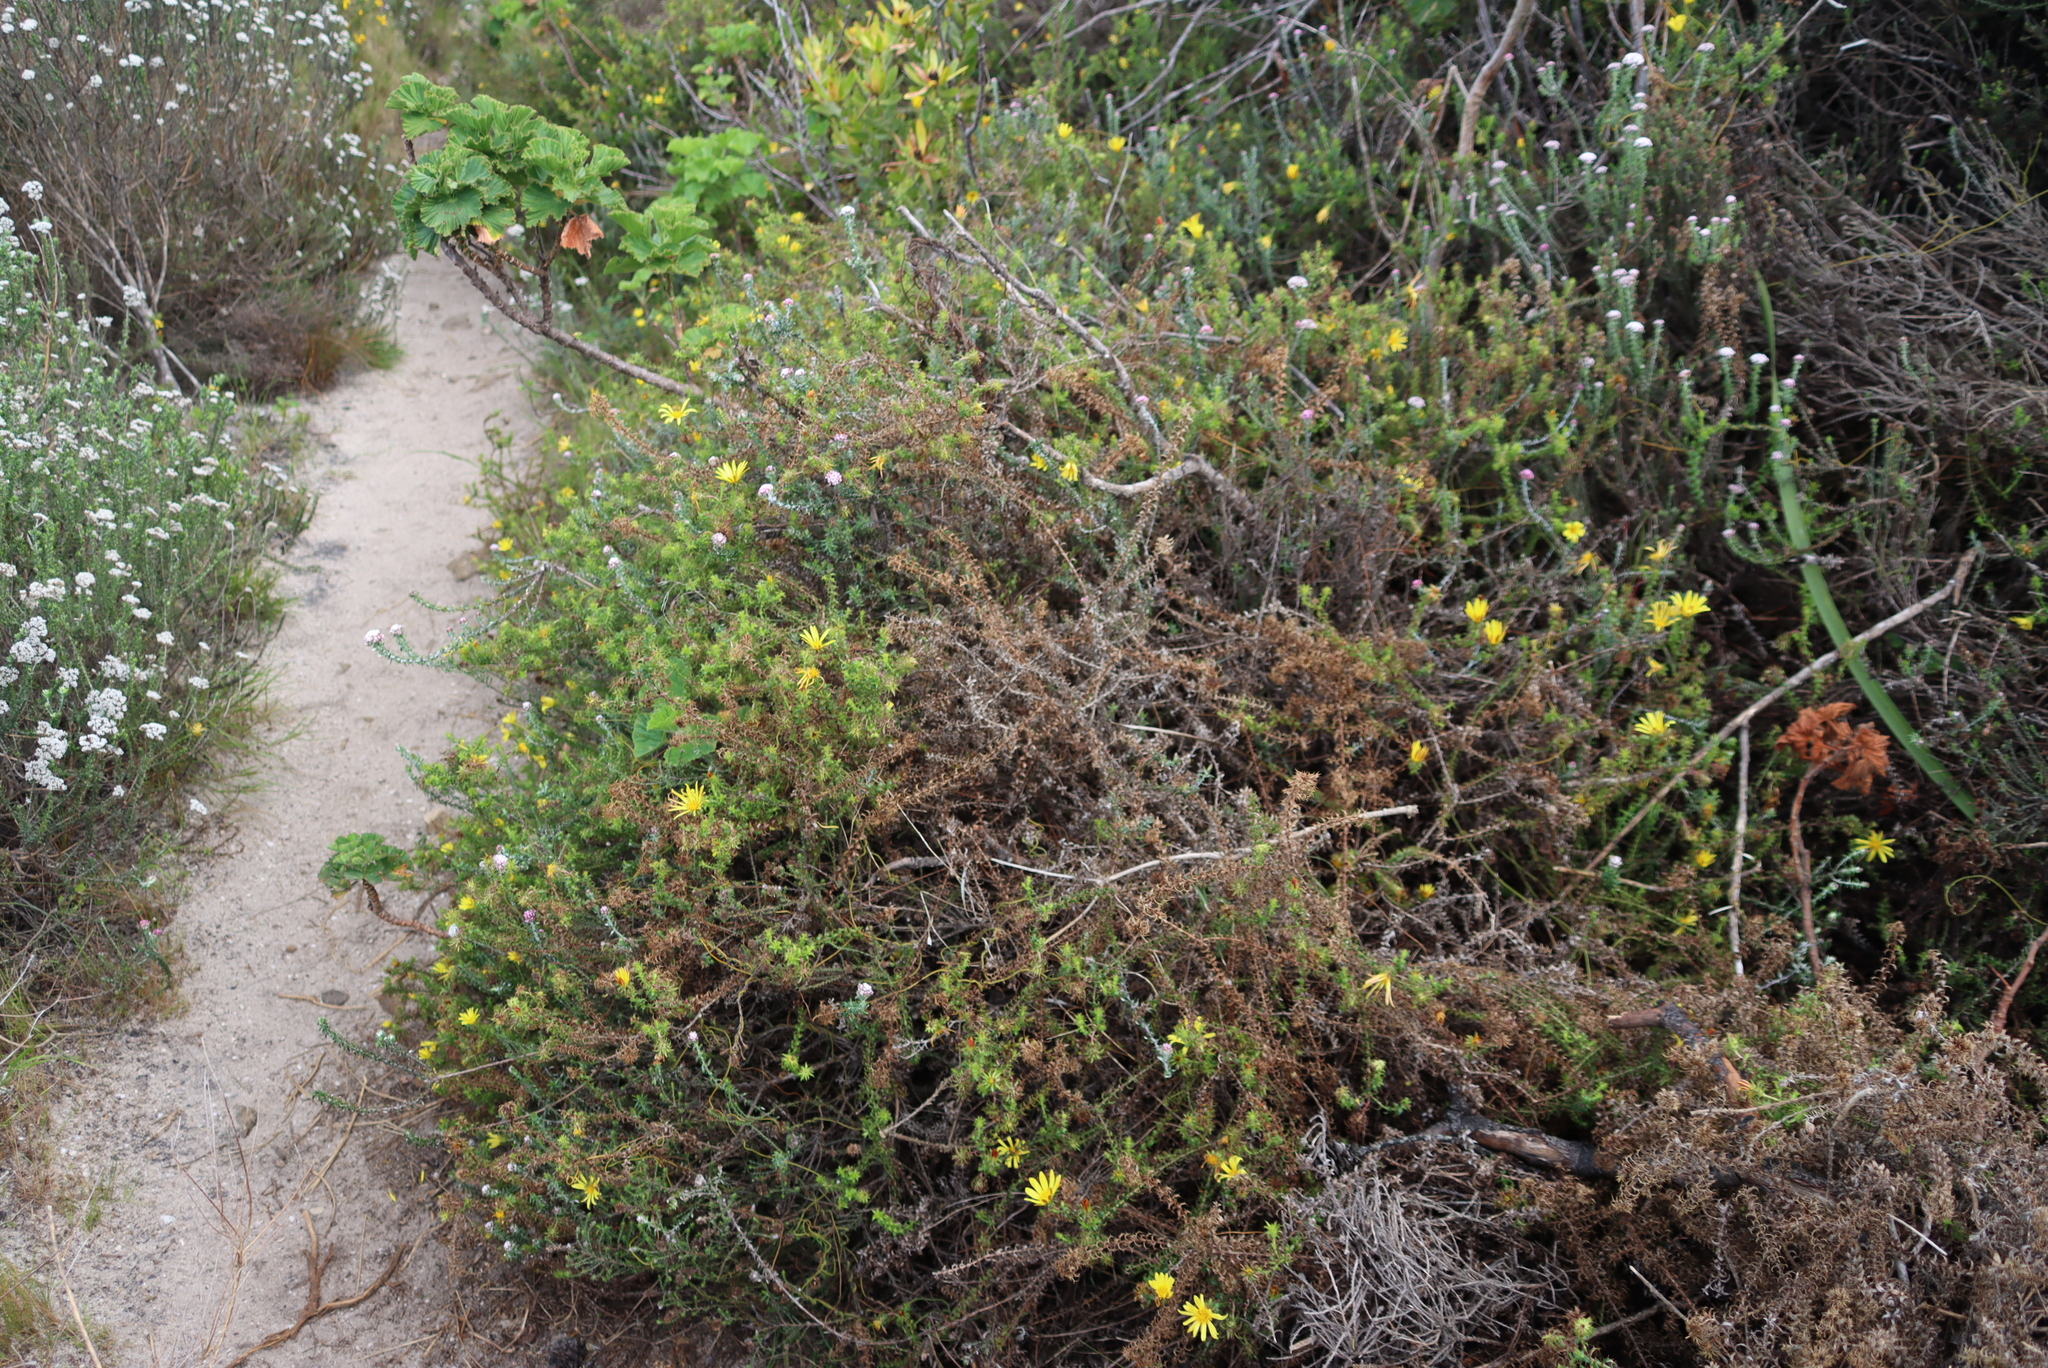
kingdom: Plantae
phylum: Tracheophyta
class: Magnoliopsida
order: Asterales
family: Asteraceae
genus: Cullumia
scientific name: Cullumia setosa
